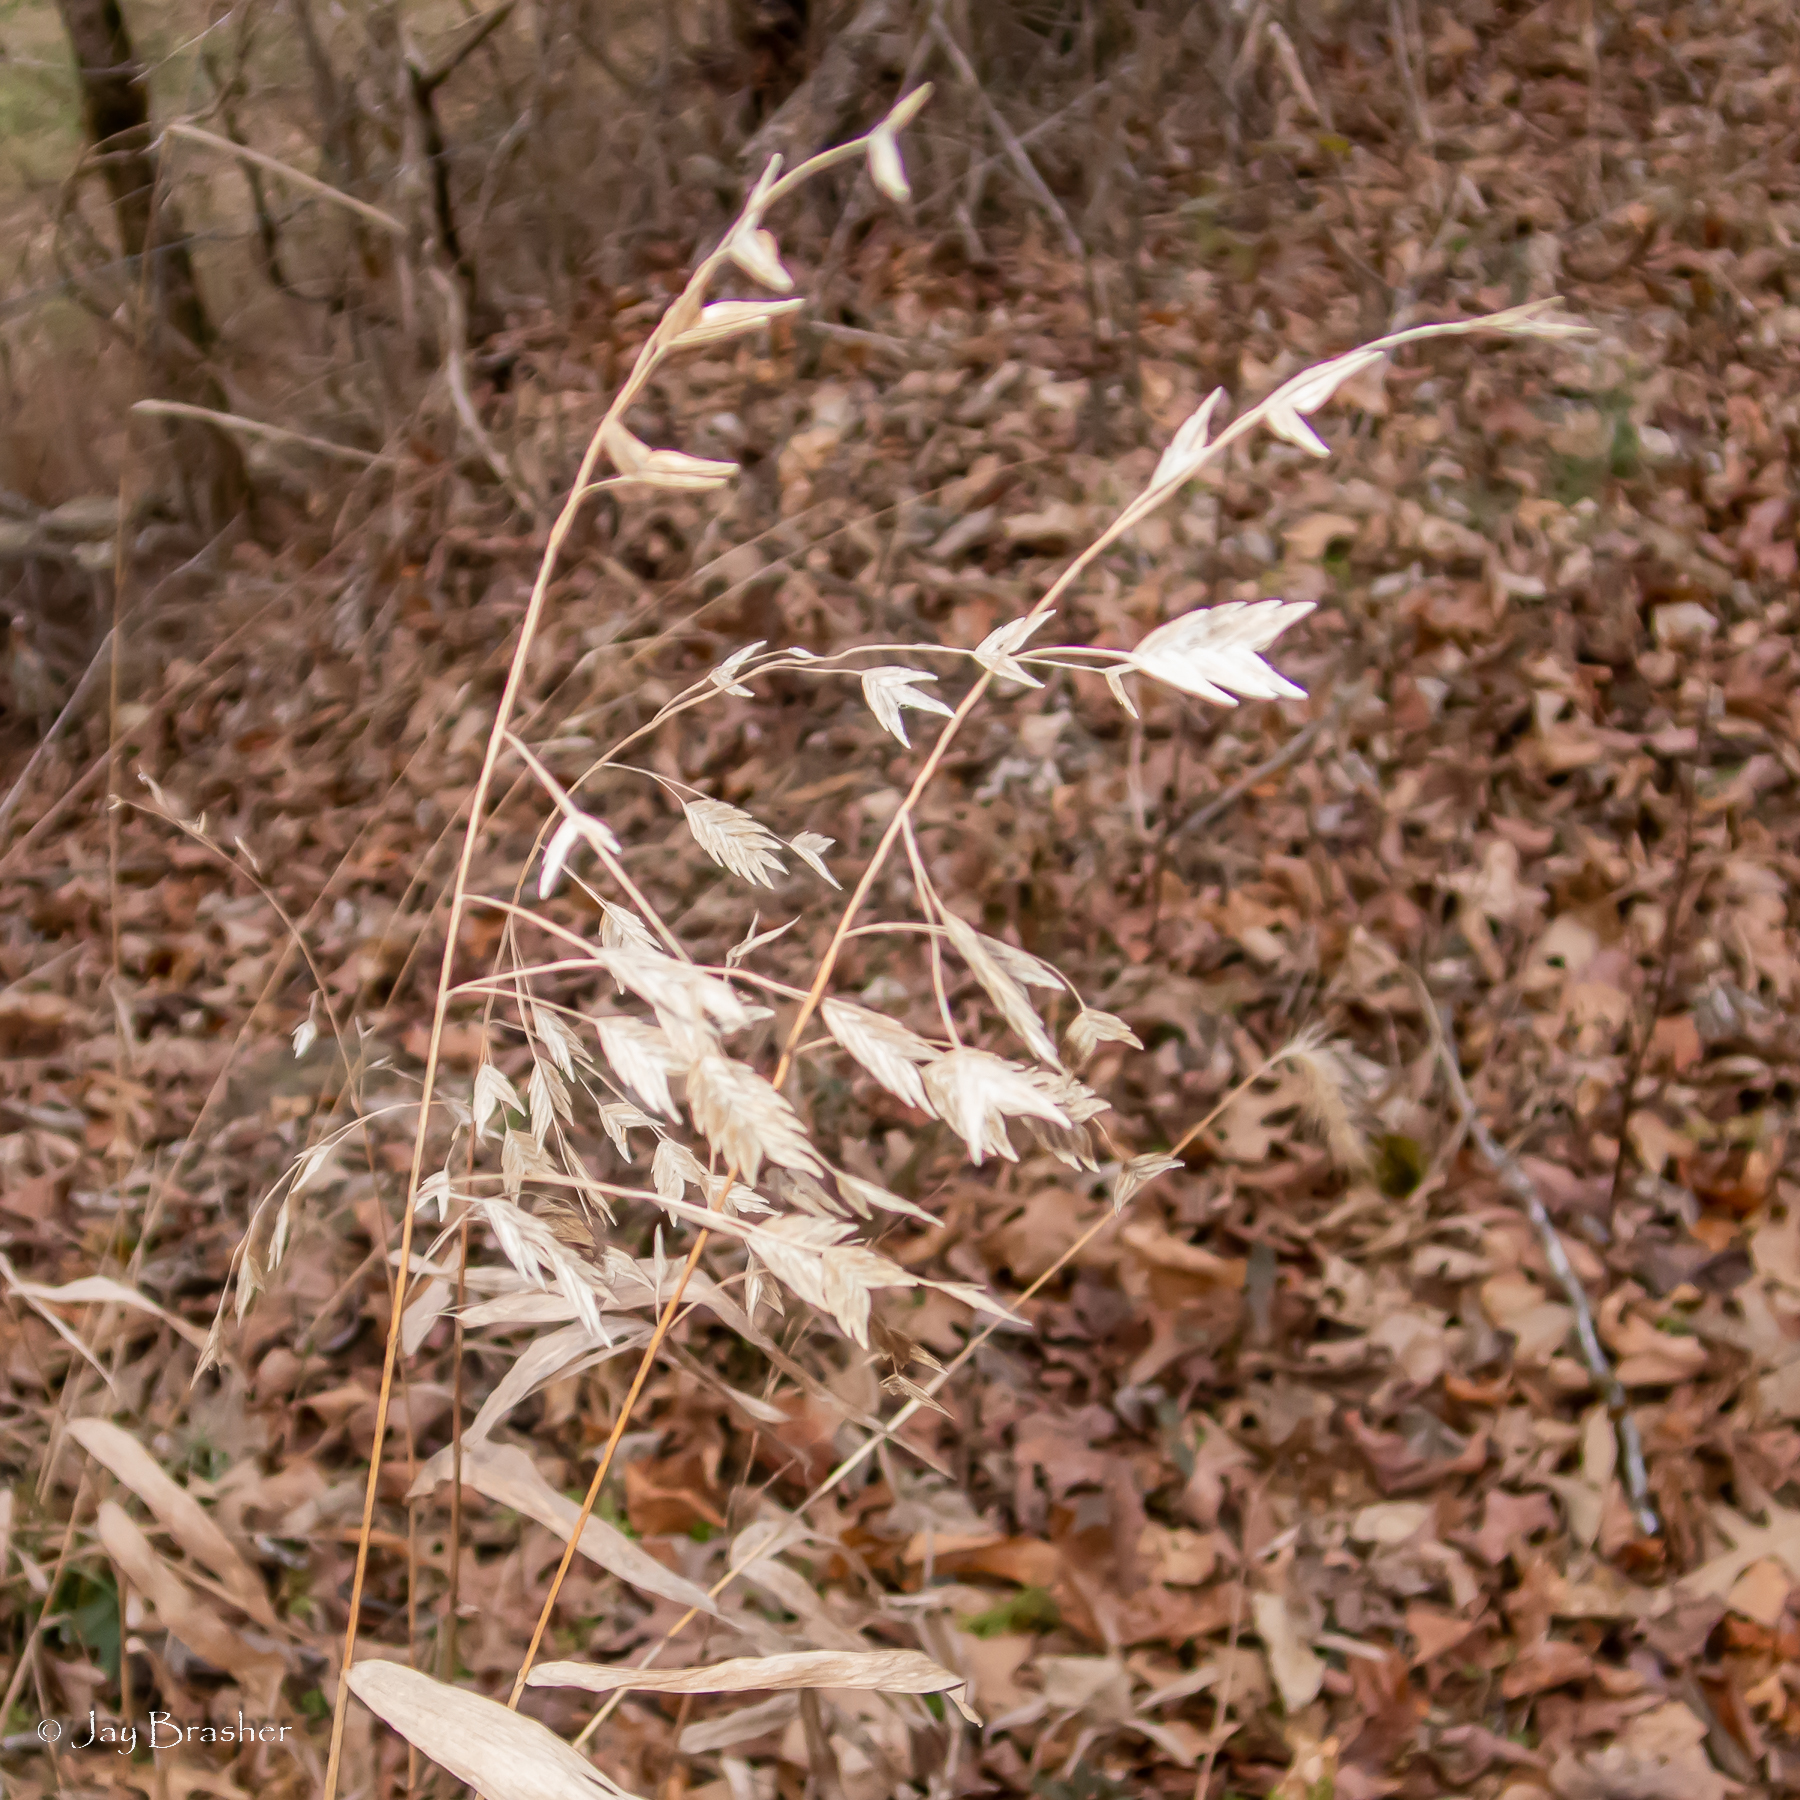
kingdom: Plantae
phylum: Tracheophyta
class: Liliopsida
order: Poales
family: Poaceae
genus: Chasmanthium
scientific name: Chasmanthium latifolium
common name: Broad-leaved chasmanthium
